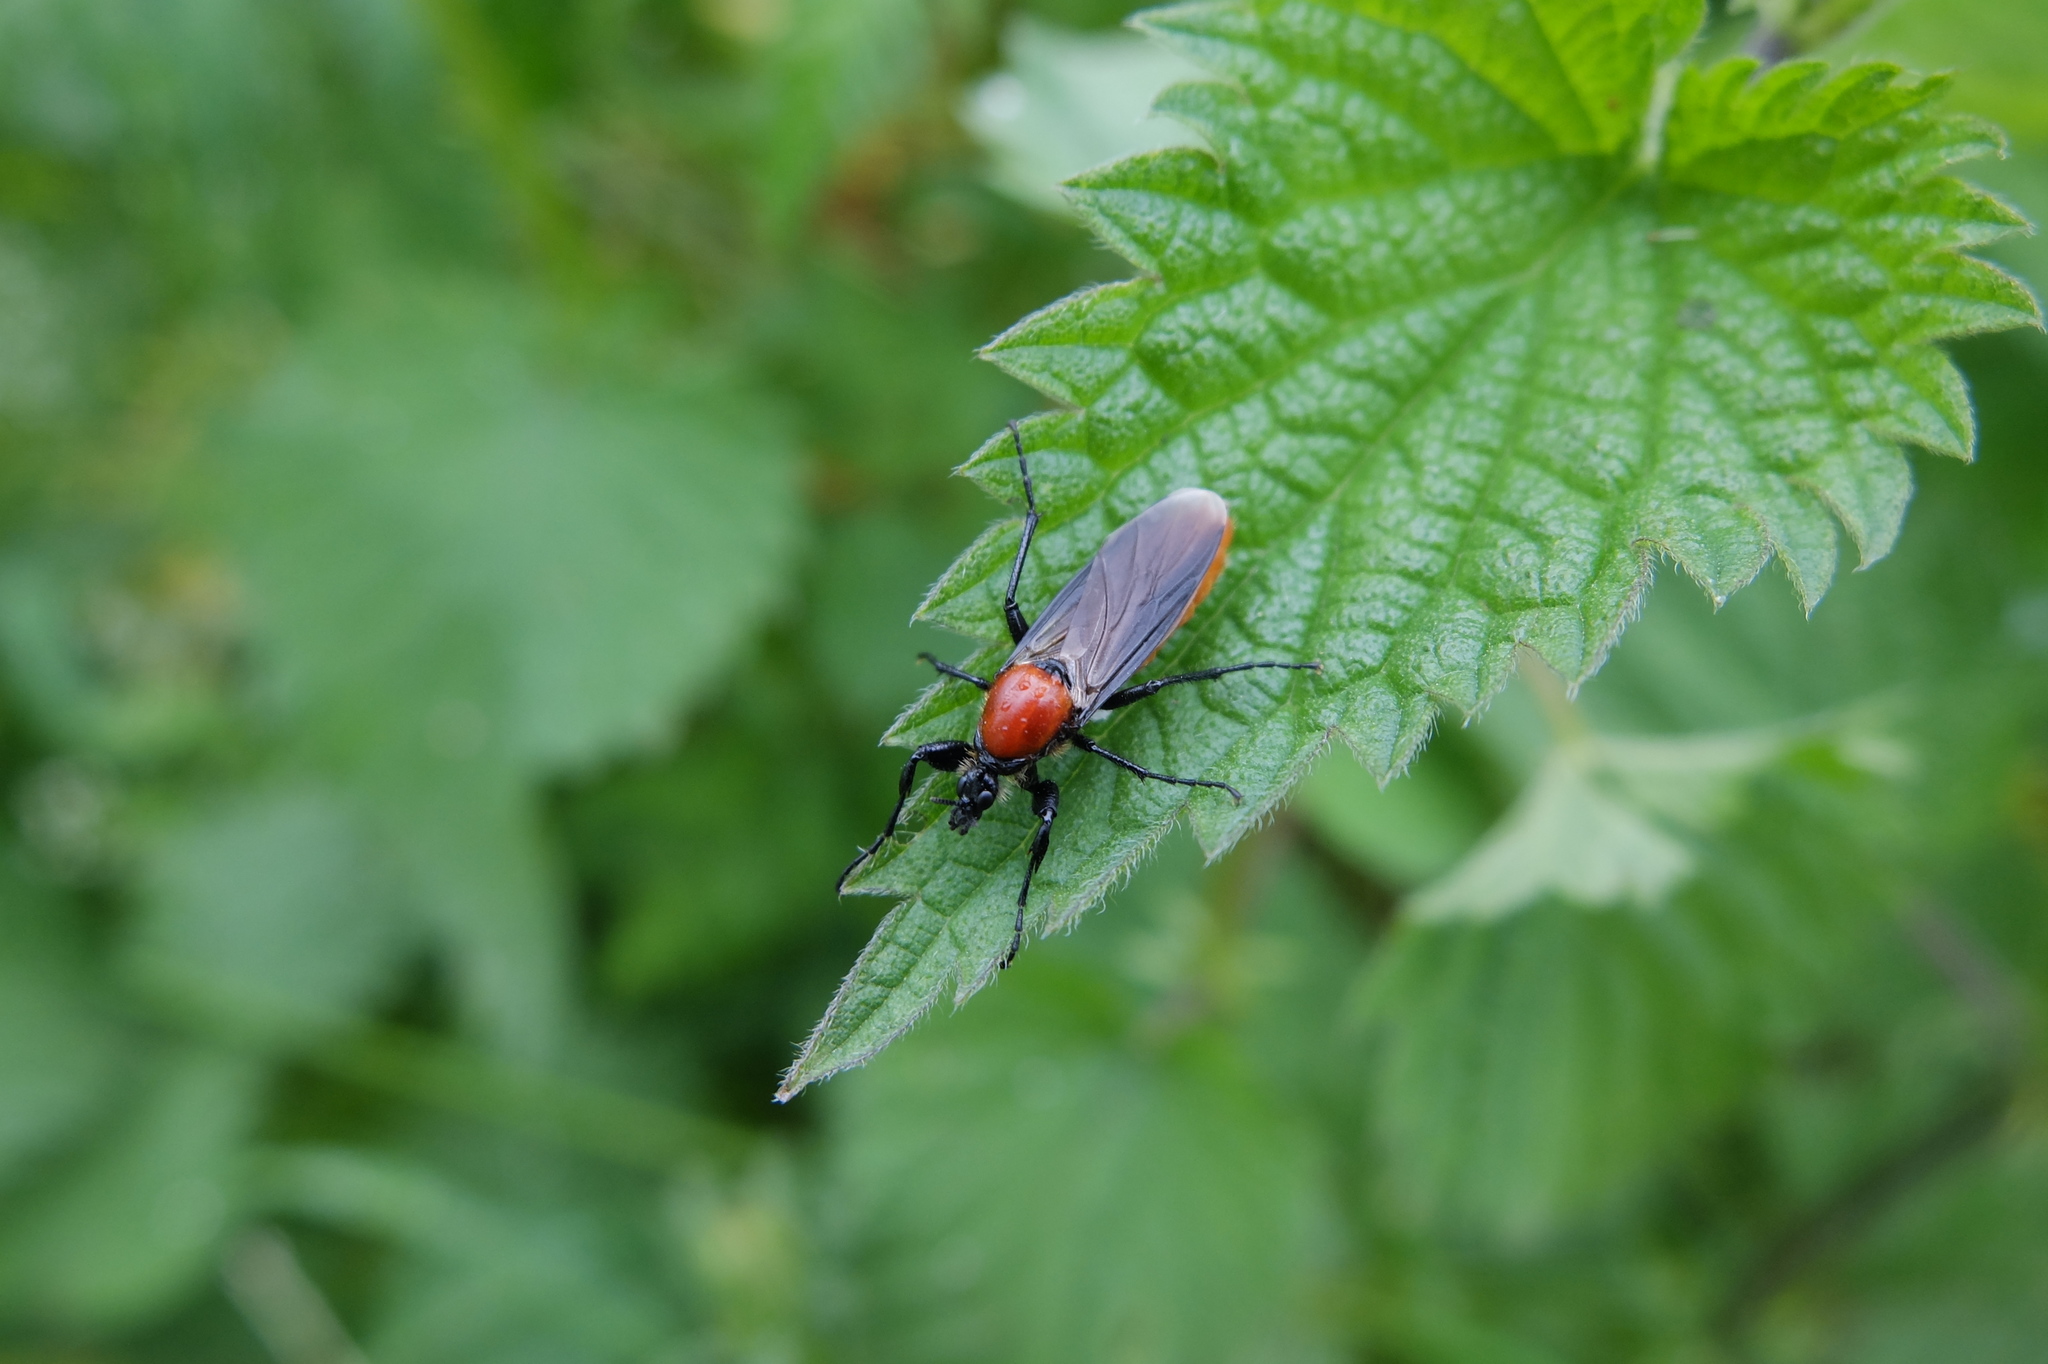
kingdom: Animalia
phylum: Arthropoda
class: Insecta
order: Diptera
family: Bibionidae
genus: Bibio
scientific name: Bibio hortulanus
